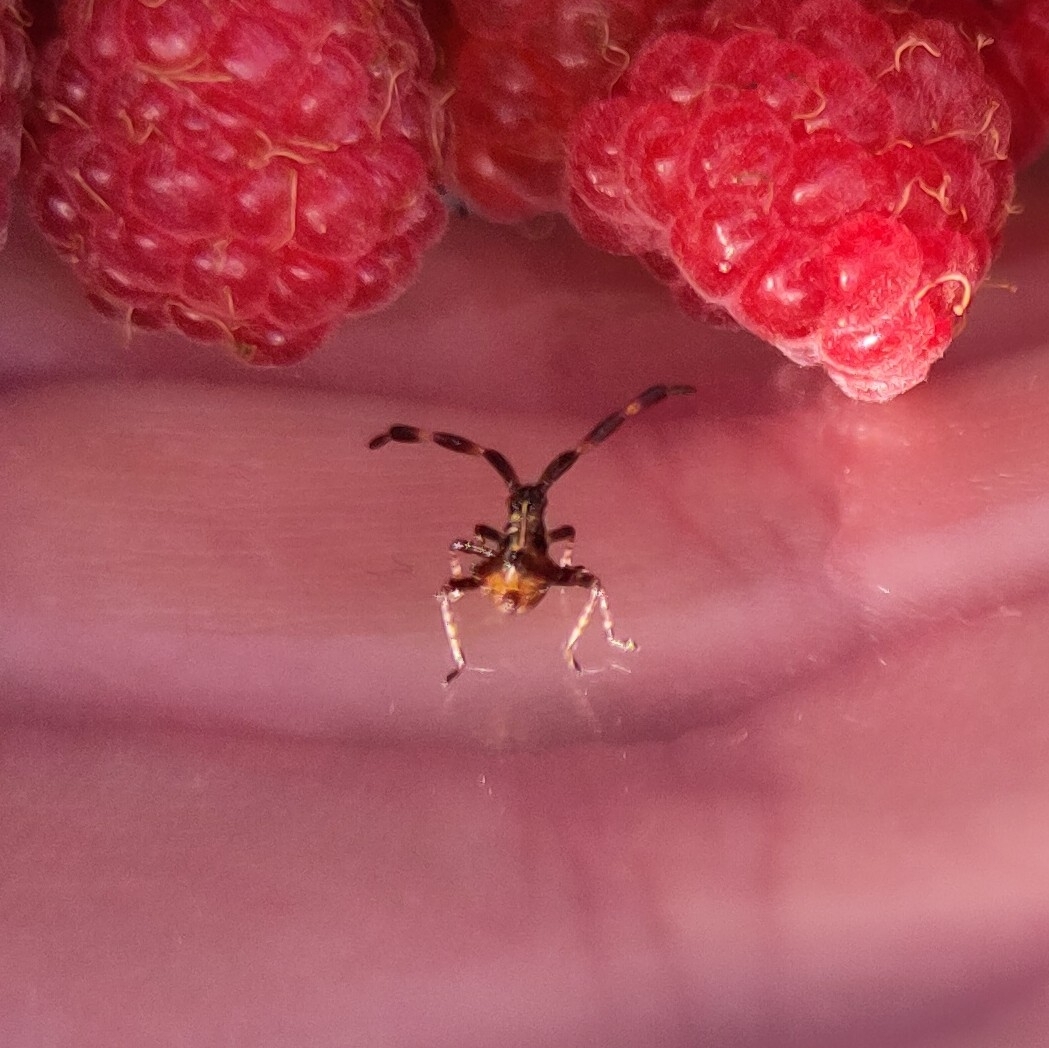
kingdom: Animalia
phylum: Arthropoda
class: Insecta
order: Hemiptera
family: Coreidae
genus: Coreus
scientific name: Coreus marginatus
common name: Dock bug
